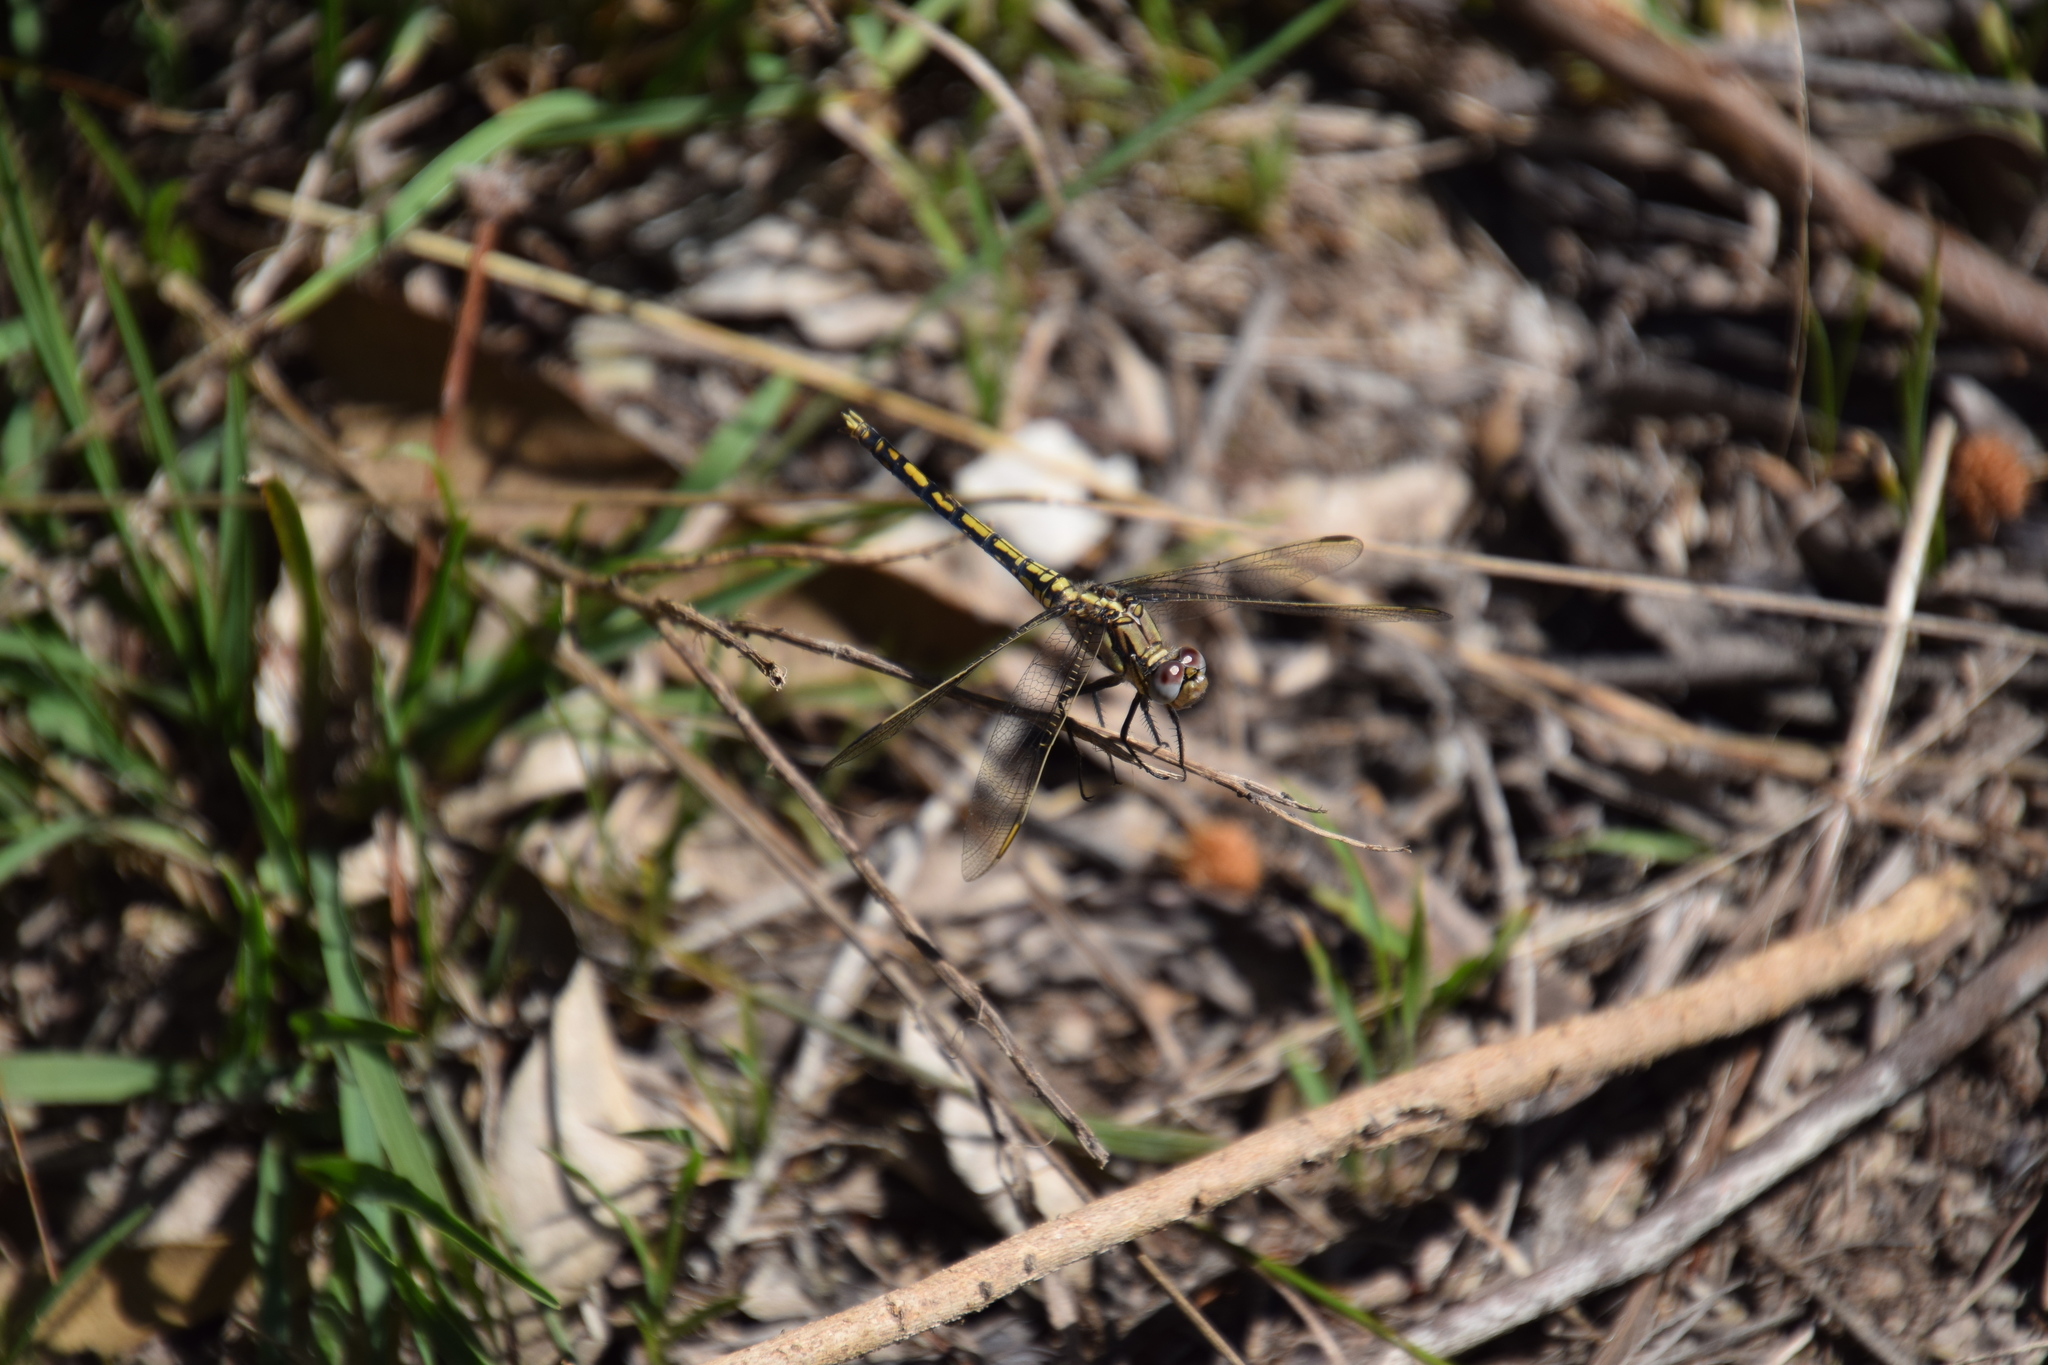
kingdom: Animalia
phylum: Arthropoda
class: Insecta
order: Odonata
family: Libellulidae
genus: Orthetrum
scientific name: Orthetrum caledonicum
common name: Blue skimmer
